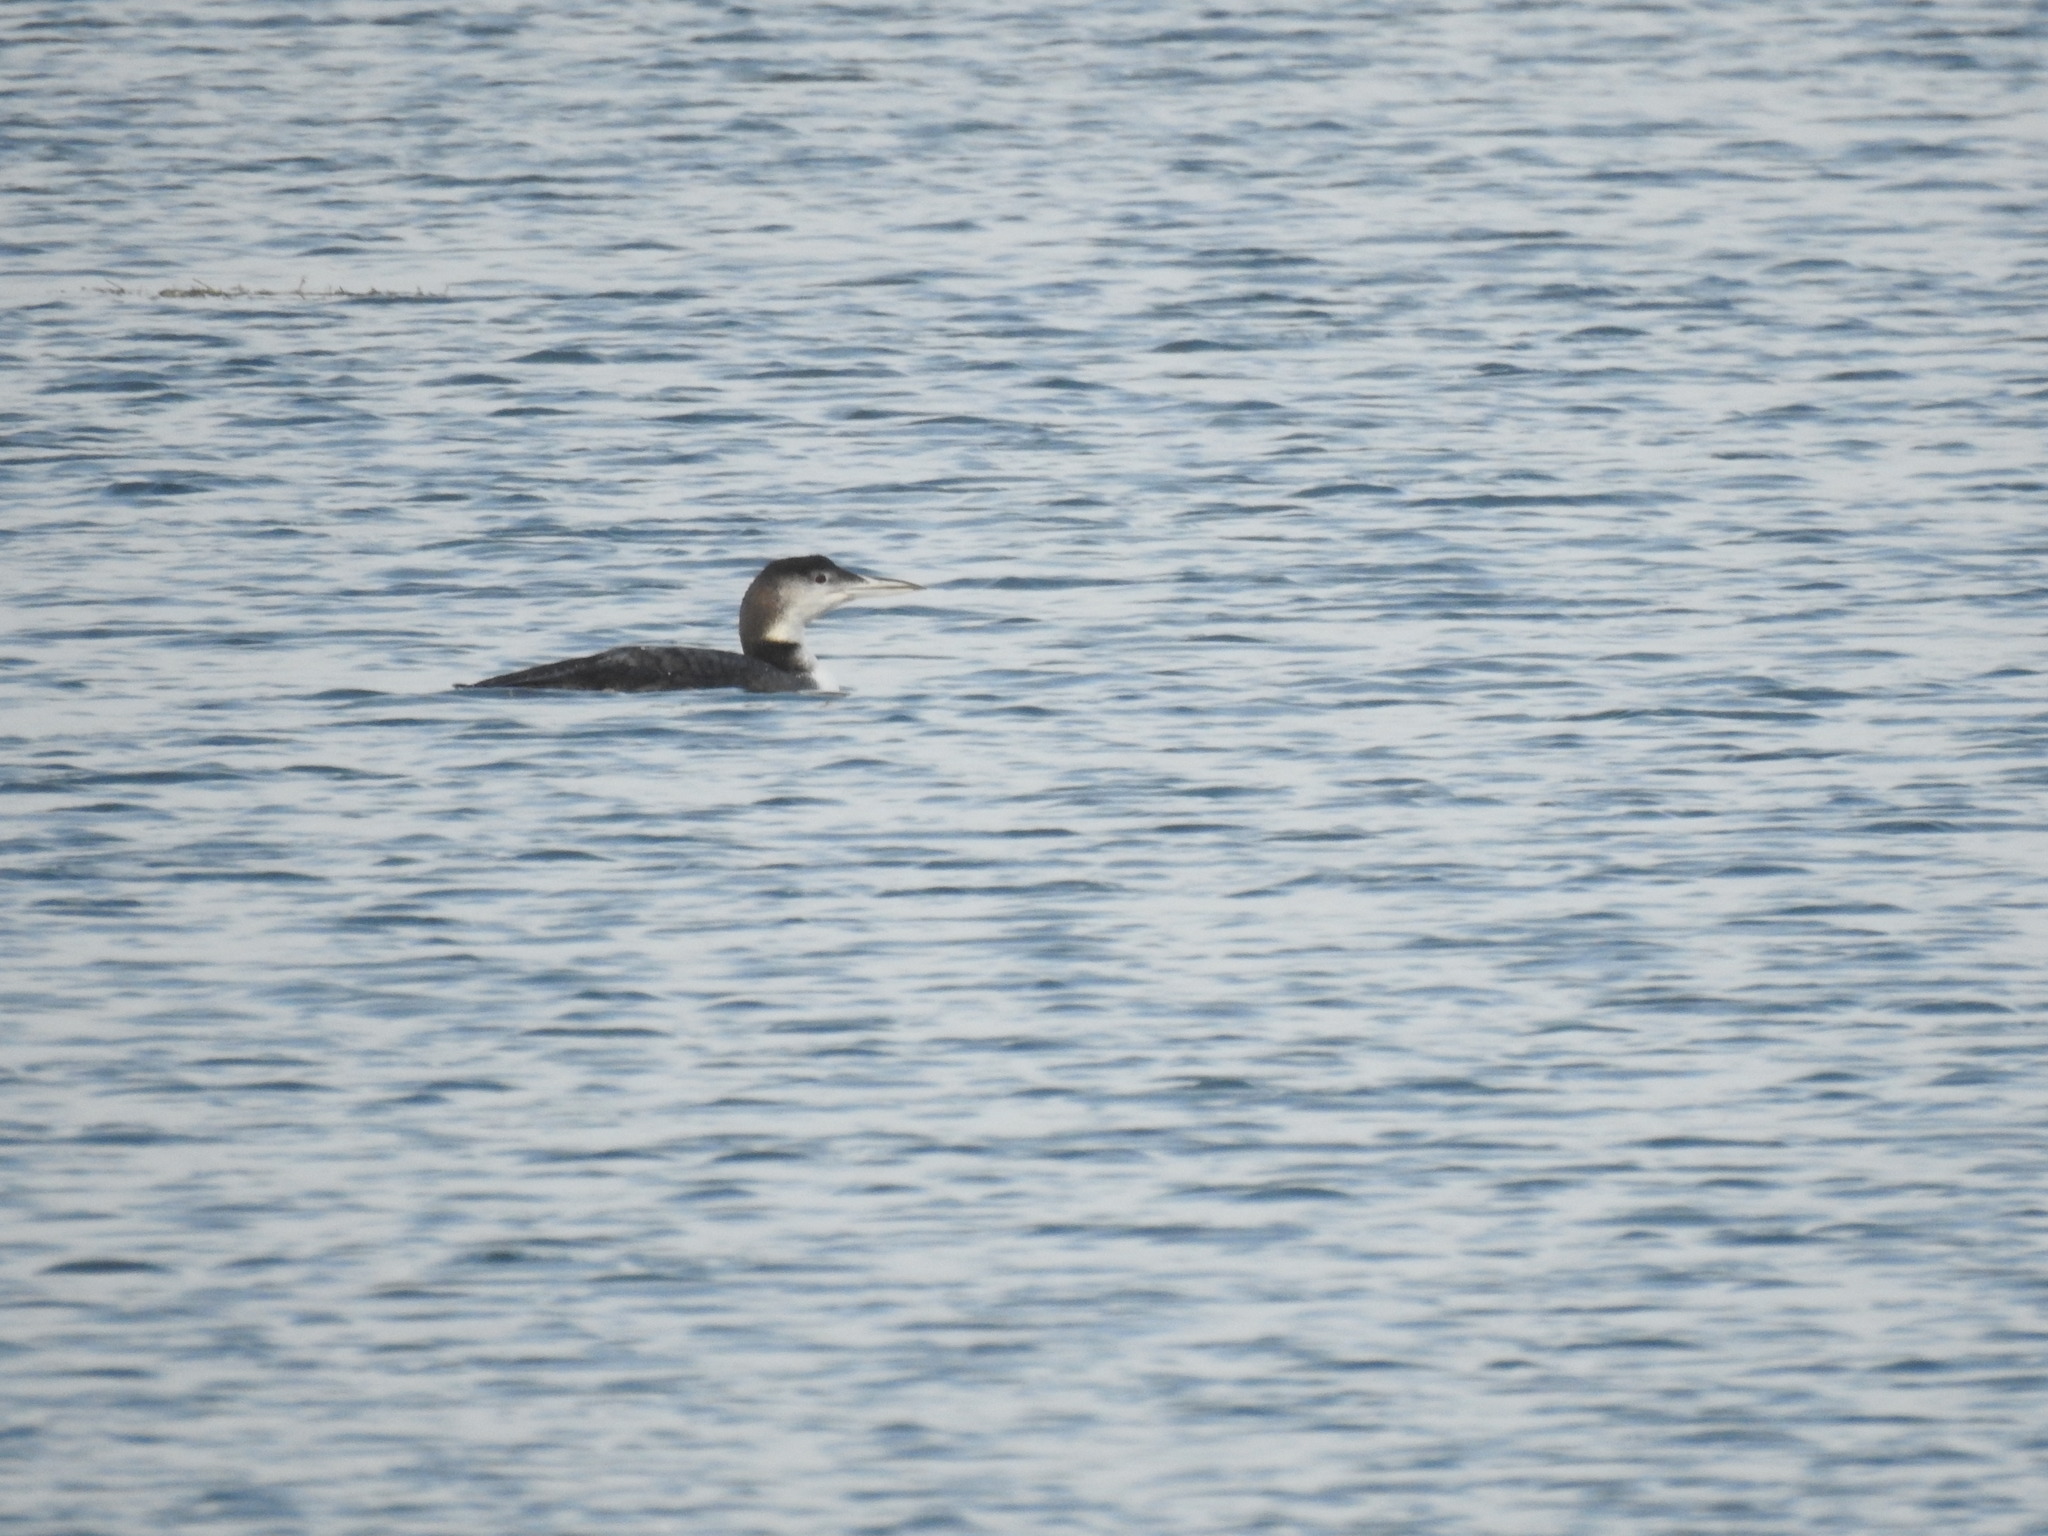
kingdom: Animalia
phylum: Chordata
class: Aves
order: Gaviiformes
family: Gaviidae
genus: Gavia
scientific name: Gavia immer
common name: Common loon
